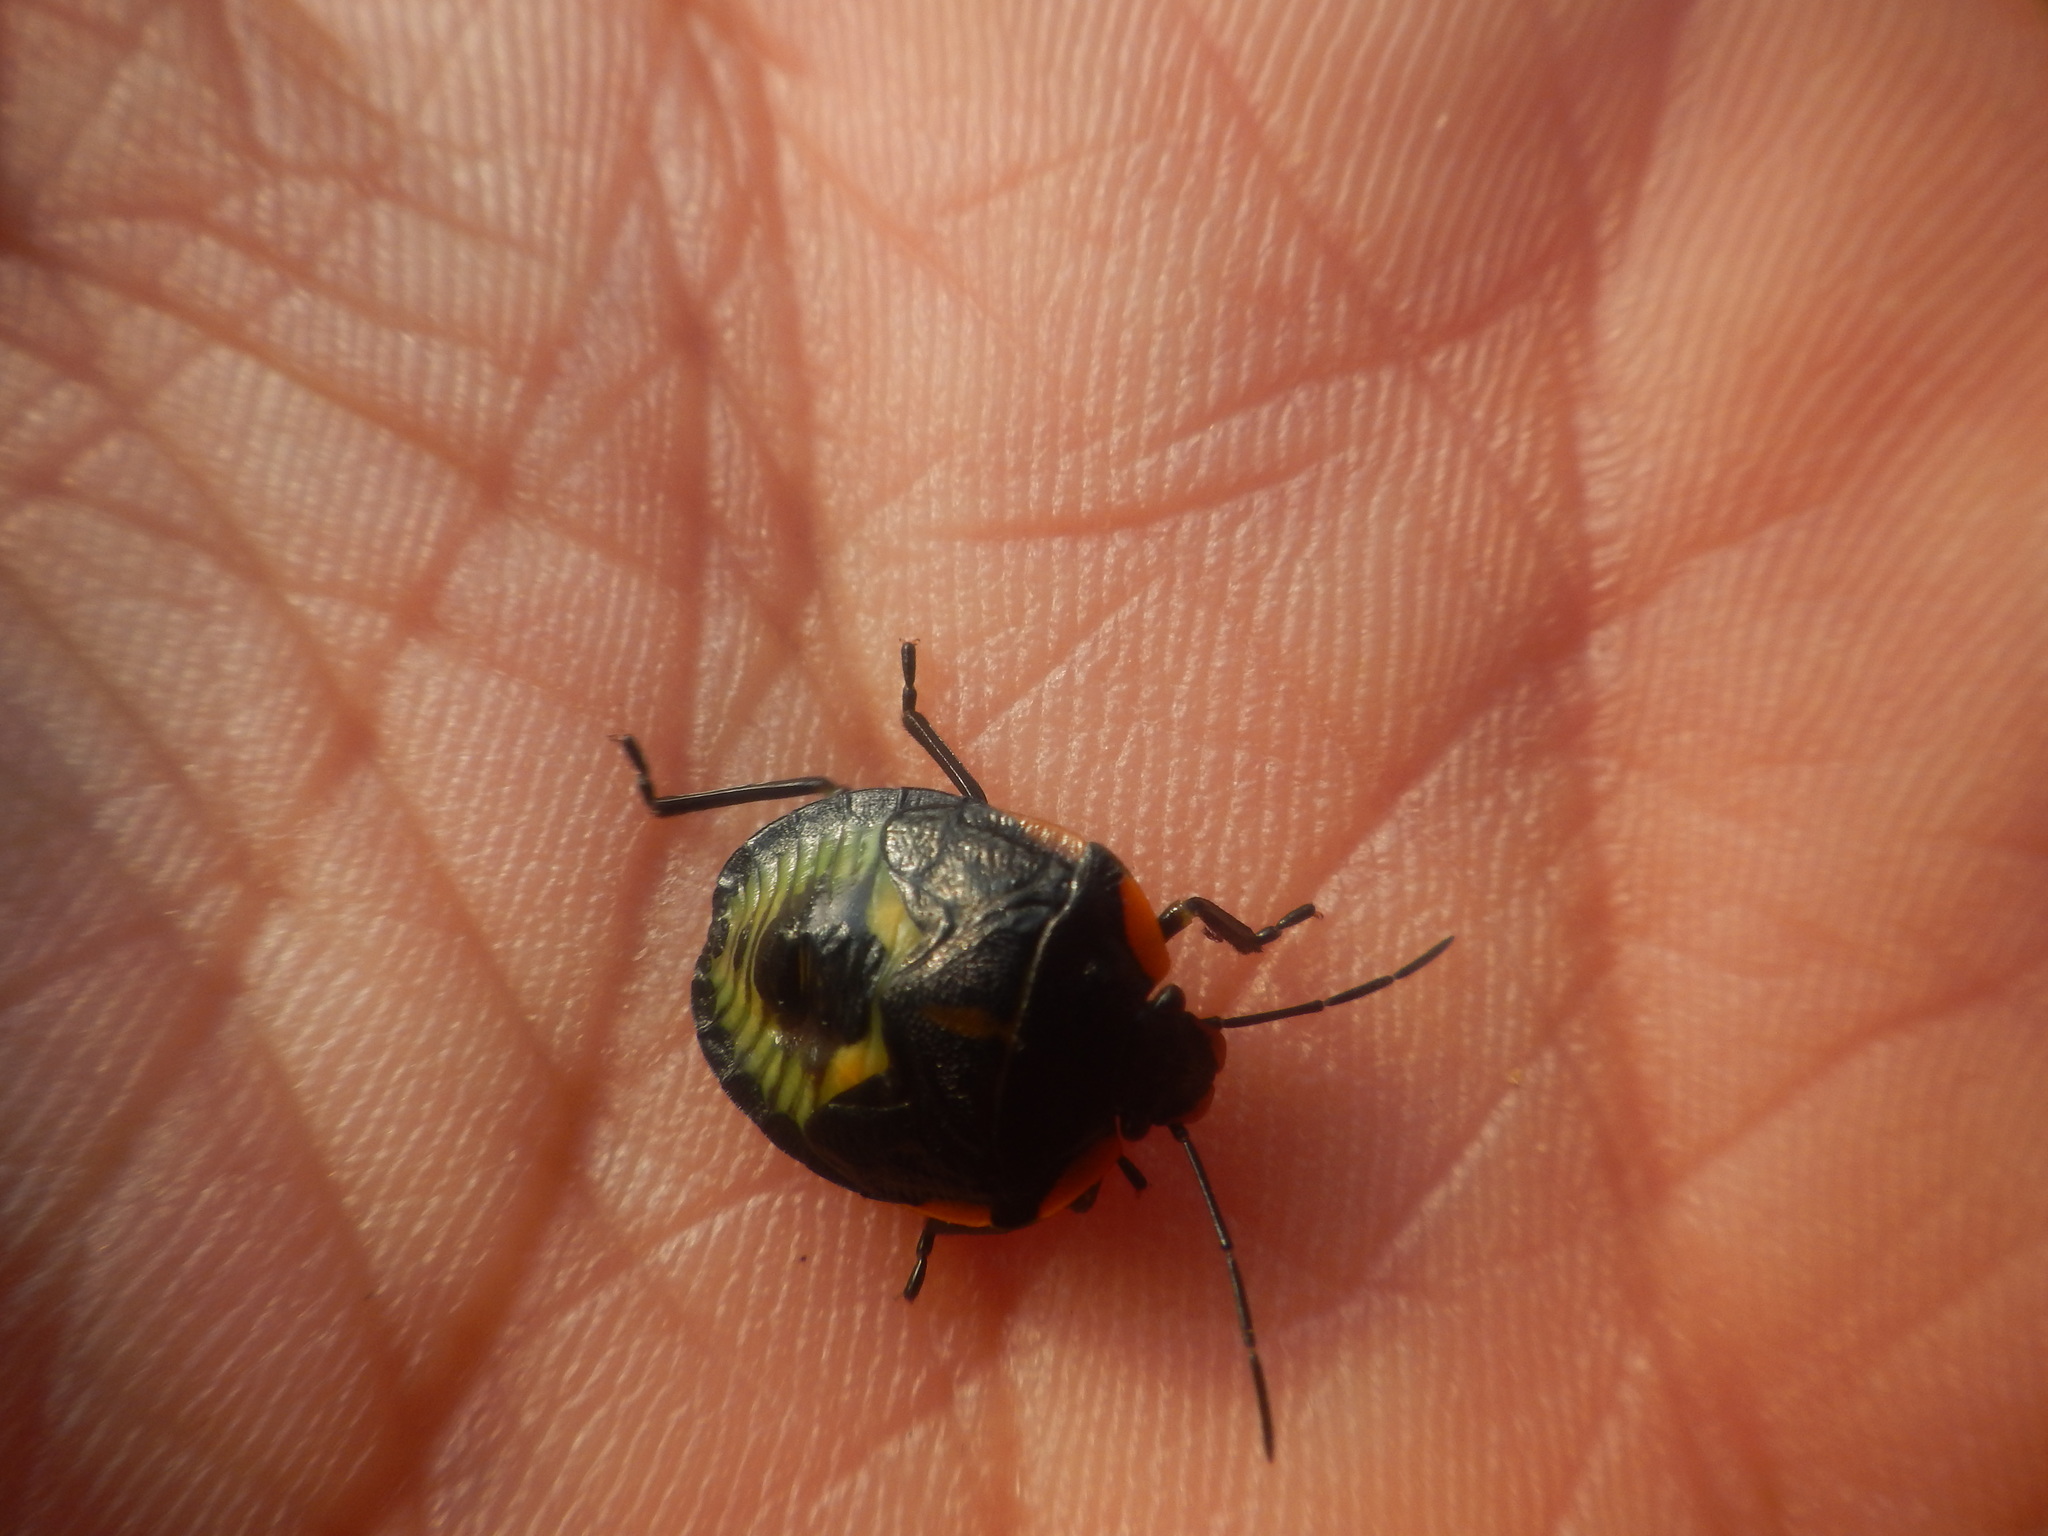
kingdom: Animalia
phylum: Arthropoda
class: Insecta
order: Hemiptera
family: Pentatomidae
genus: Chinavia
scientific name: Chinavia hilaris
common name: Green stink bug
